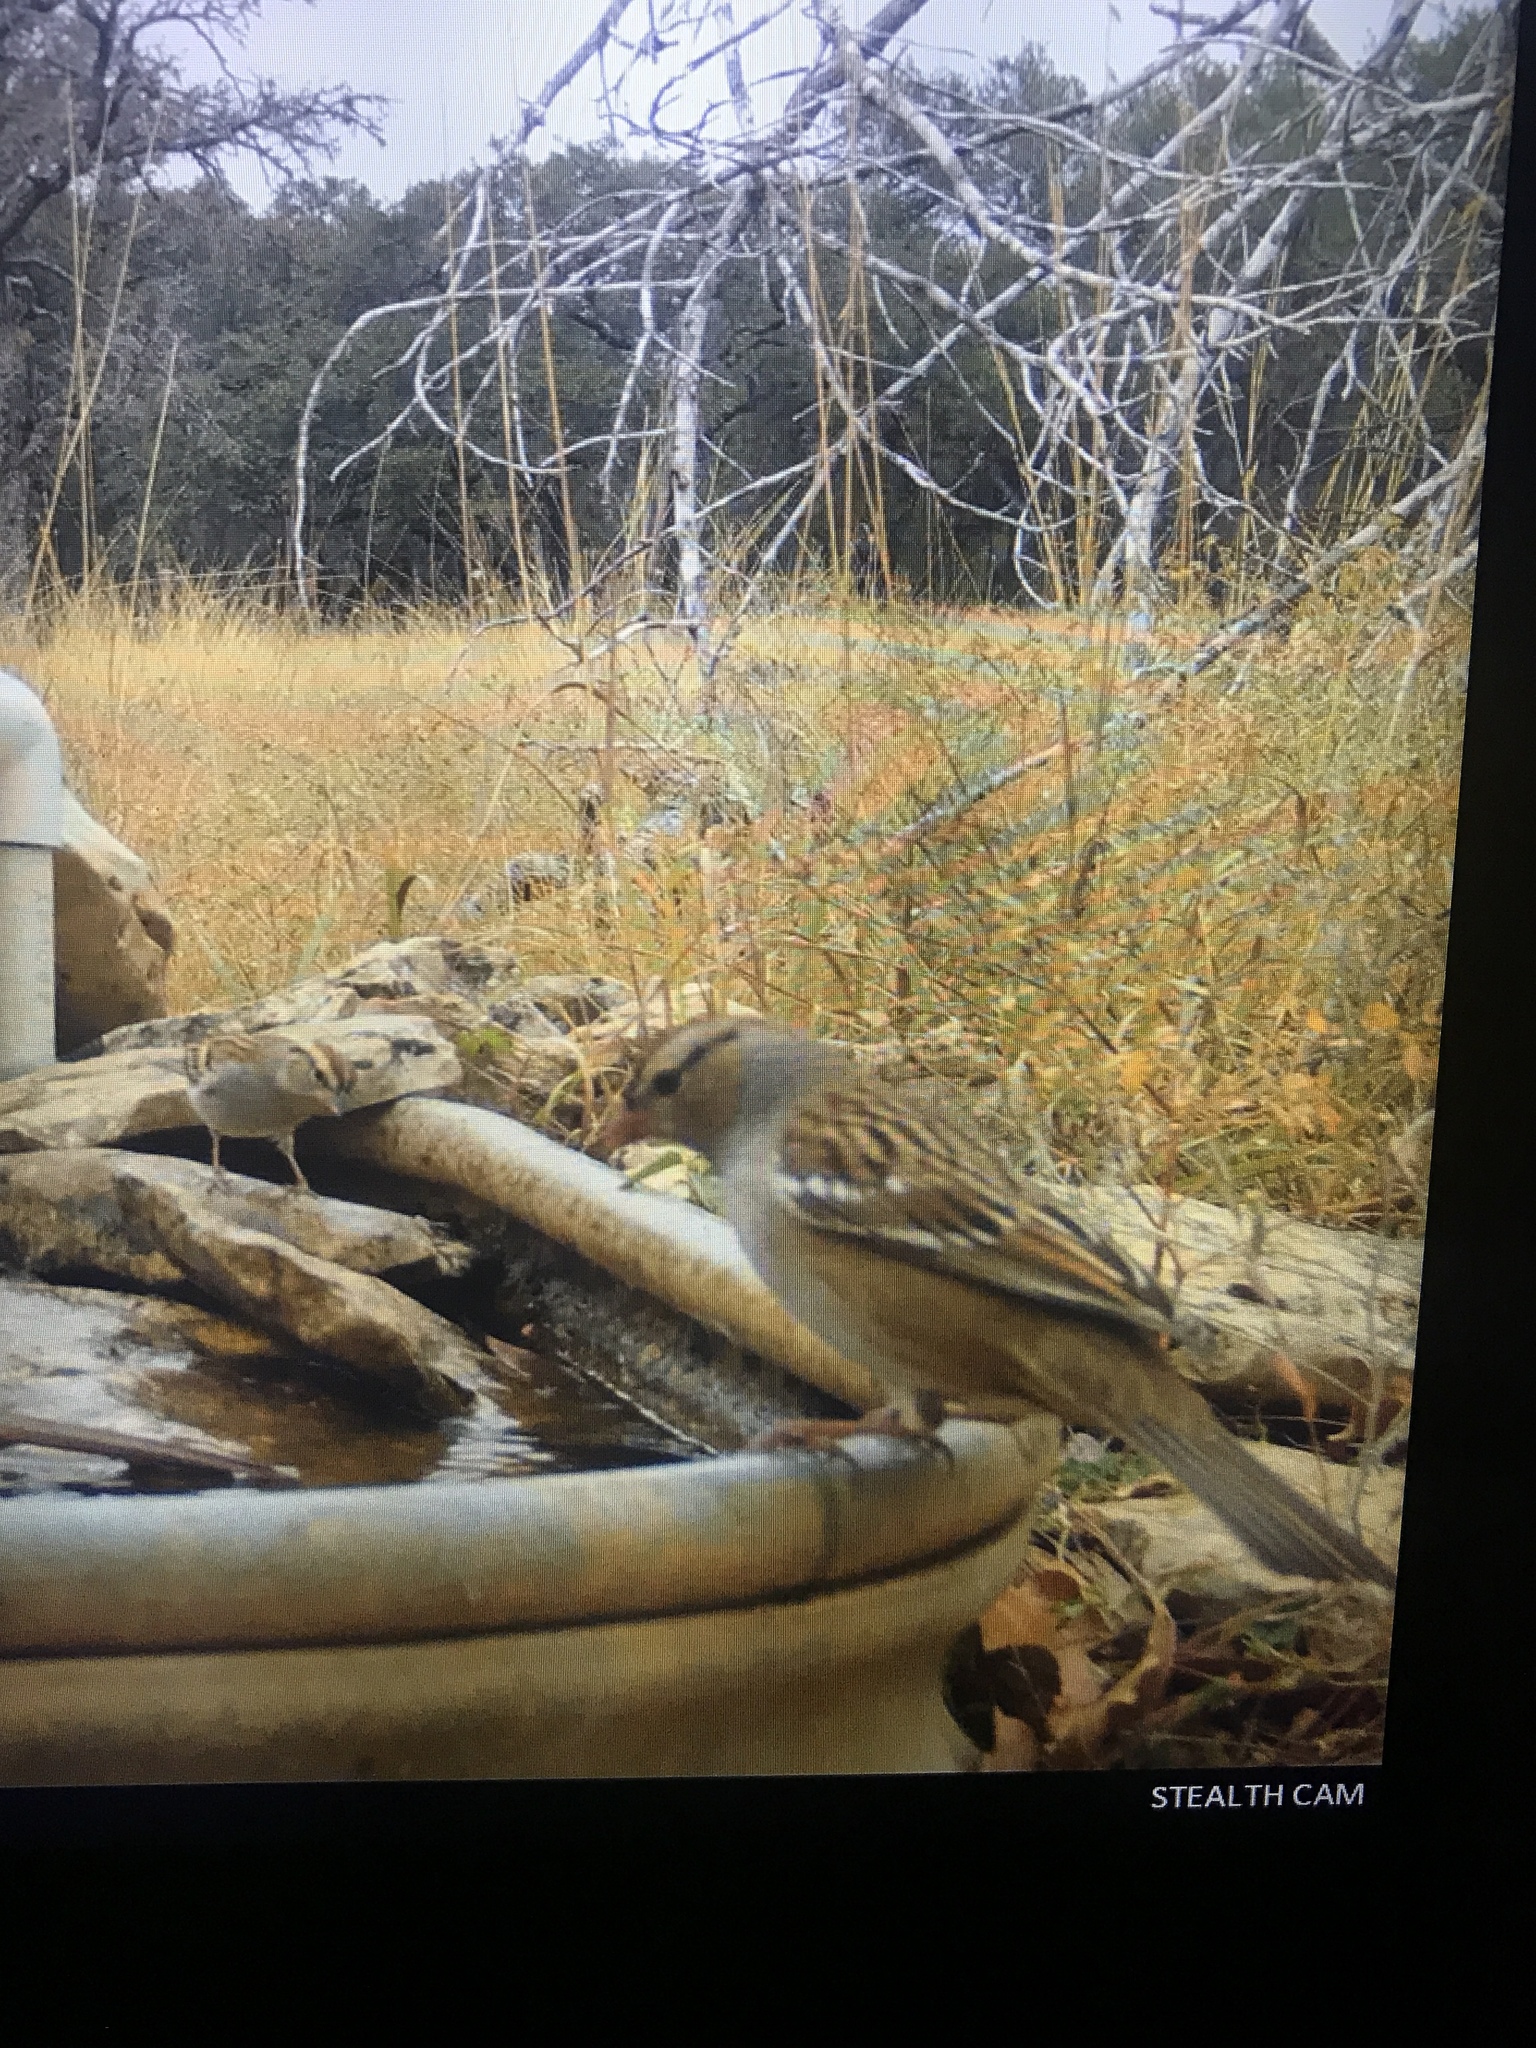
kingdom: Animalia
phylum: Chordata
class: Aves
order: Passeriformes
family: Passerellidae
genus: Zonotrichia
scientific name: Zonotrichia leucophrys
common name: White-crowned sparrow
